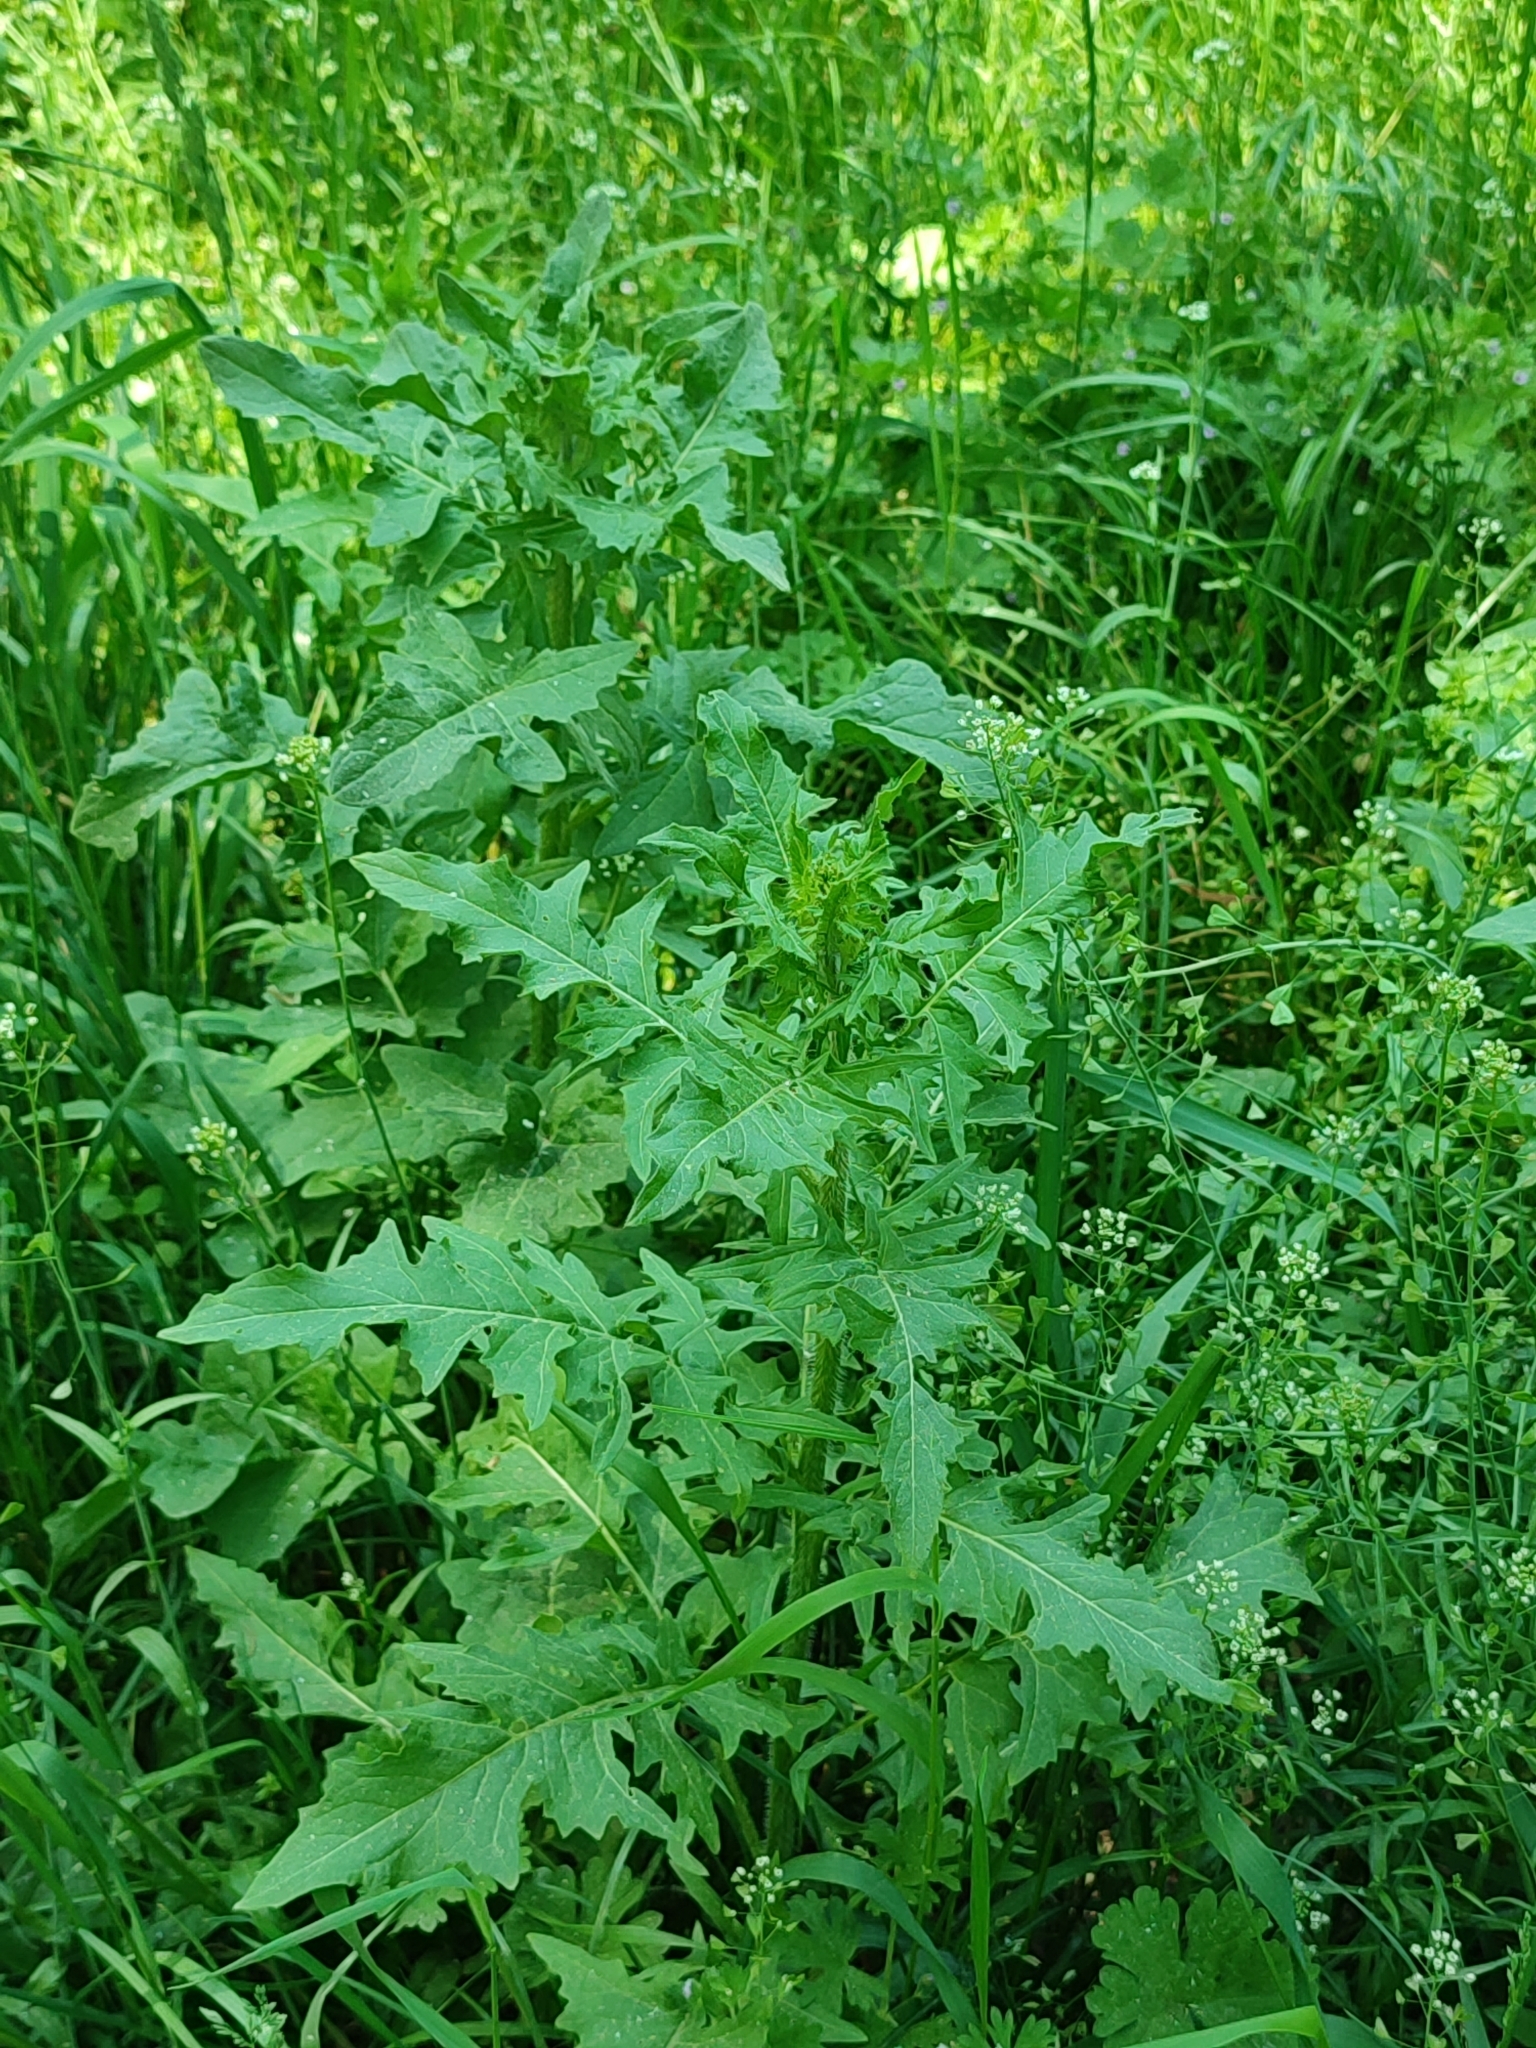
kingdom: Plantae
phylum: Tracheophyta
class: Magnoliopsida
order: Brassicales
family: Brassicaceae
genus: Sisymbrium
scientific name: Sisymbrium loeselii
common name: False london-rocket
